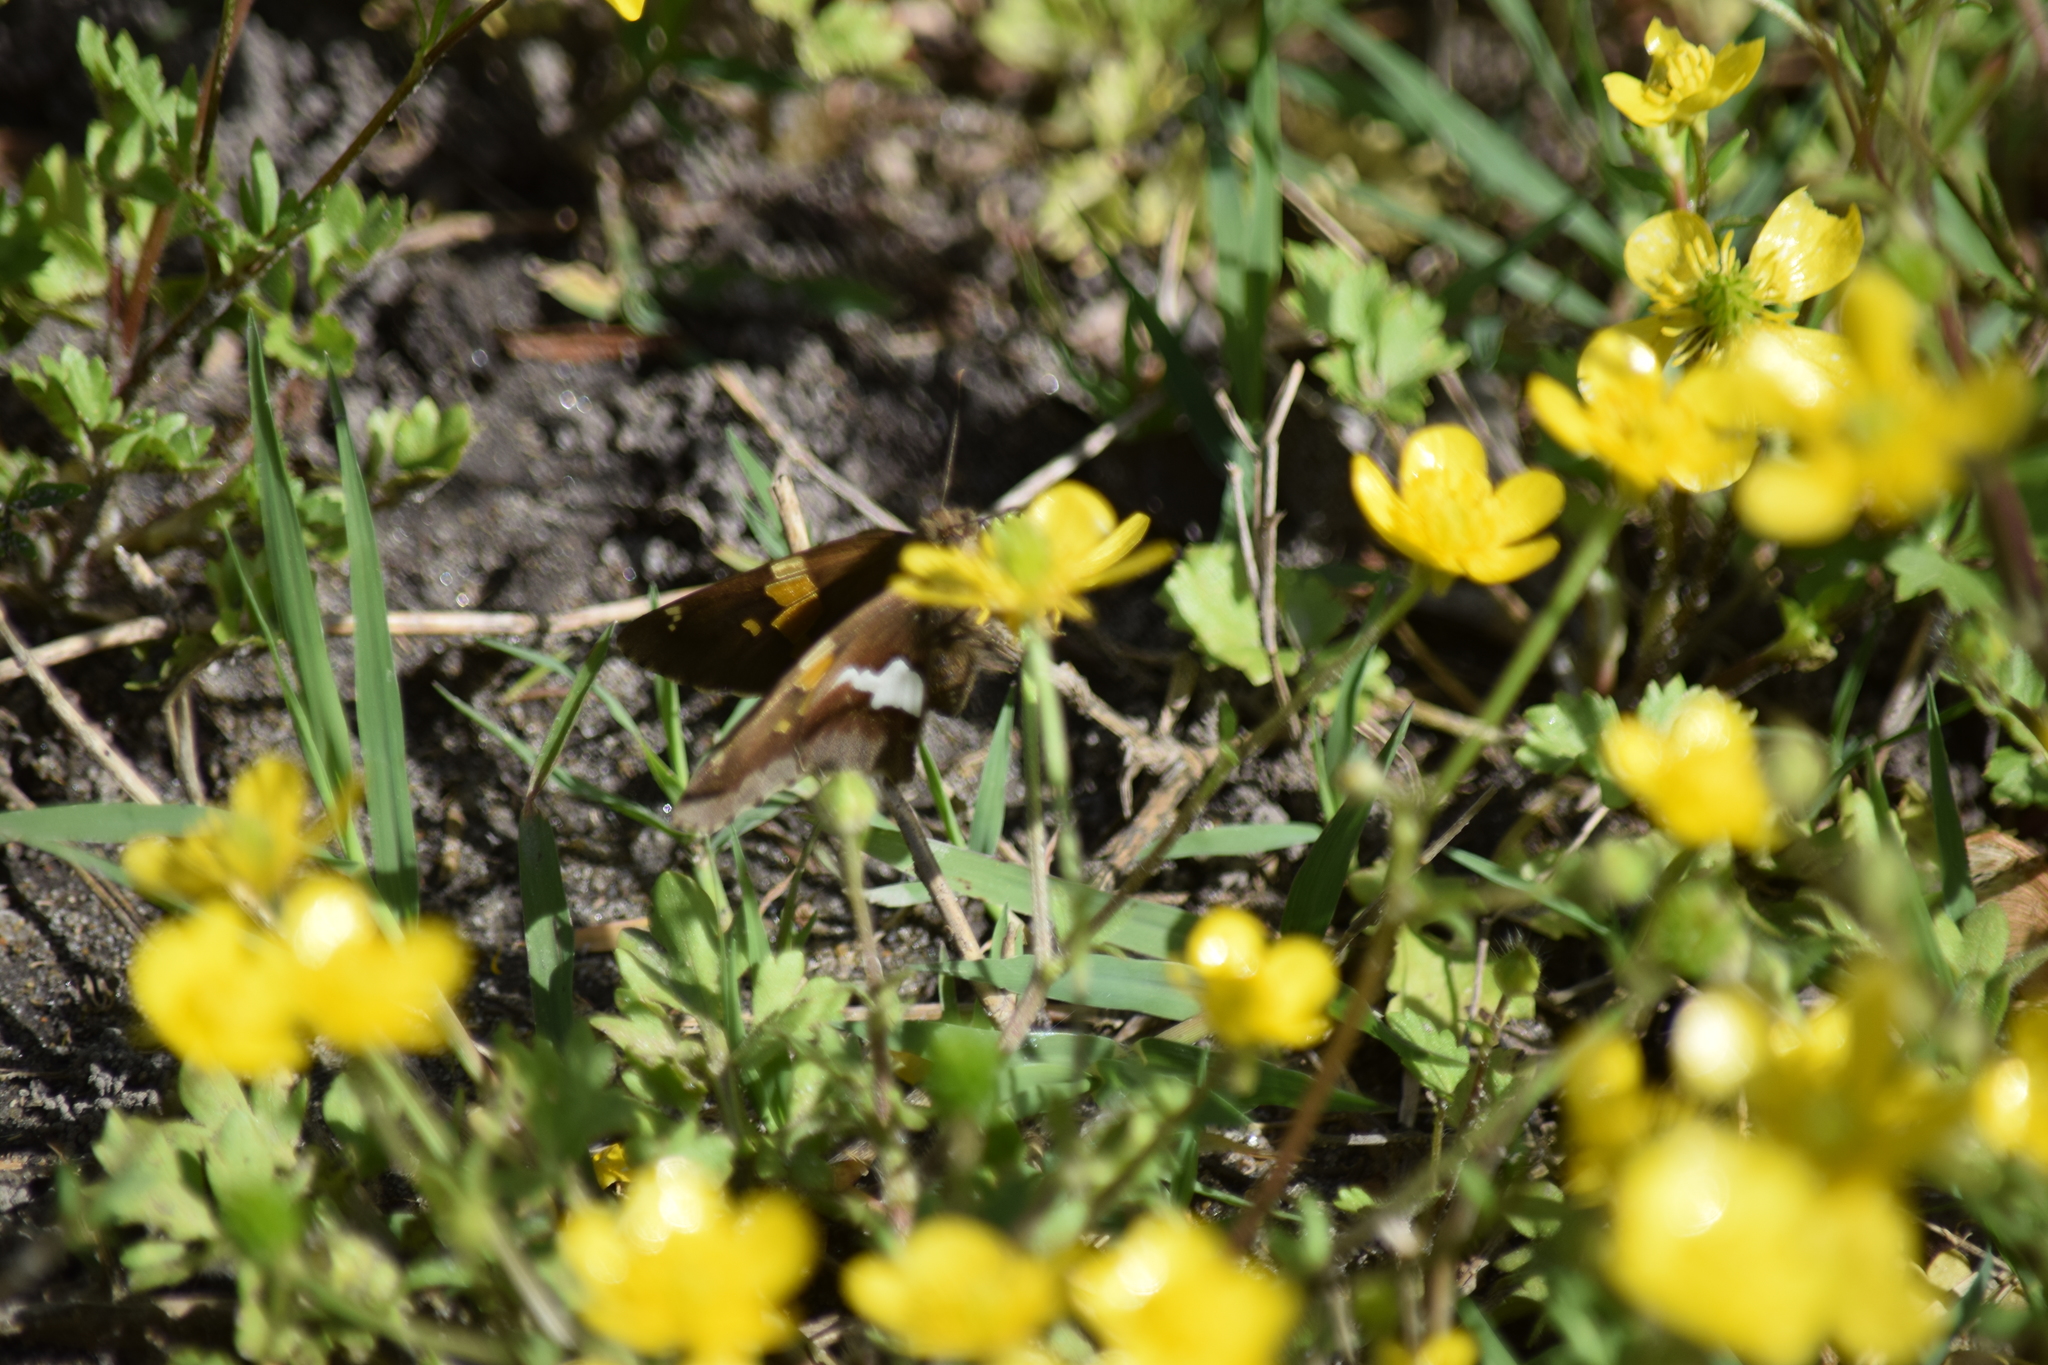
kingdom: Animalia
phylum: Arthropoda
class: Insecta
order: Lepidoptera
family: Hesperiidae
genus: Epargyreus
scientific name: Epargyreus clarus
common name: Silver-spotted skipper
